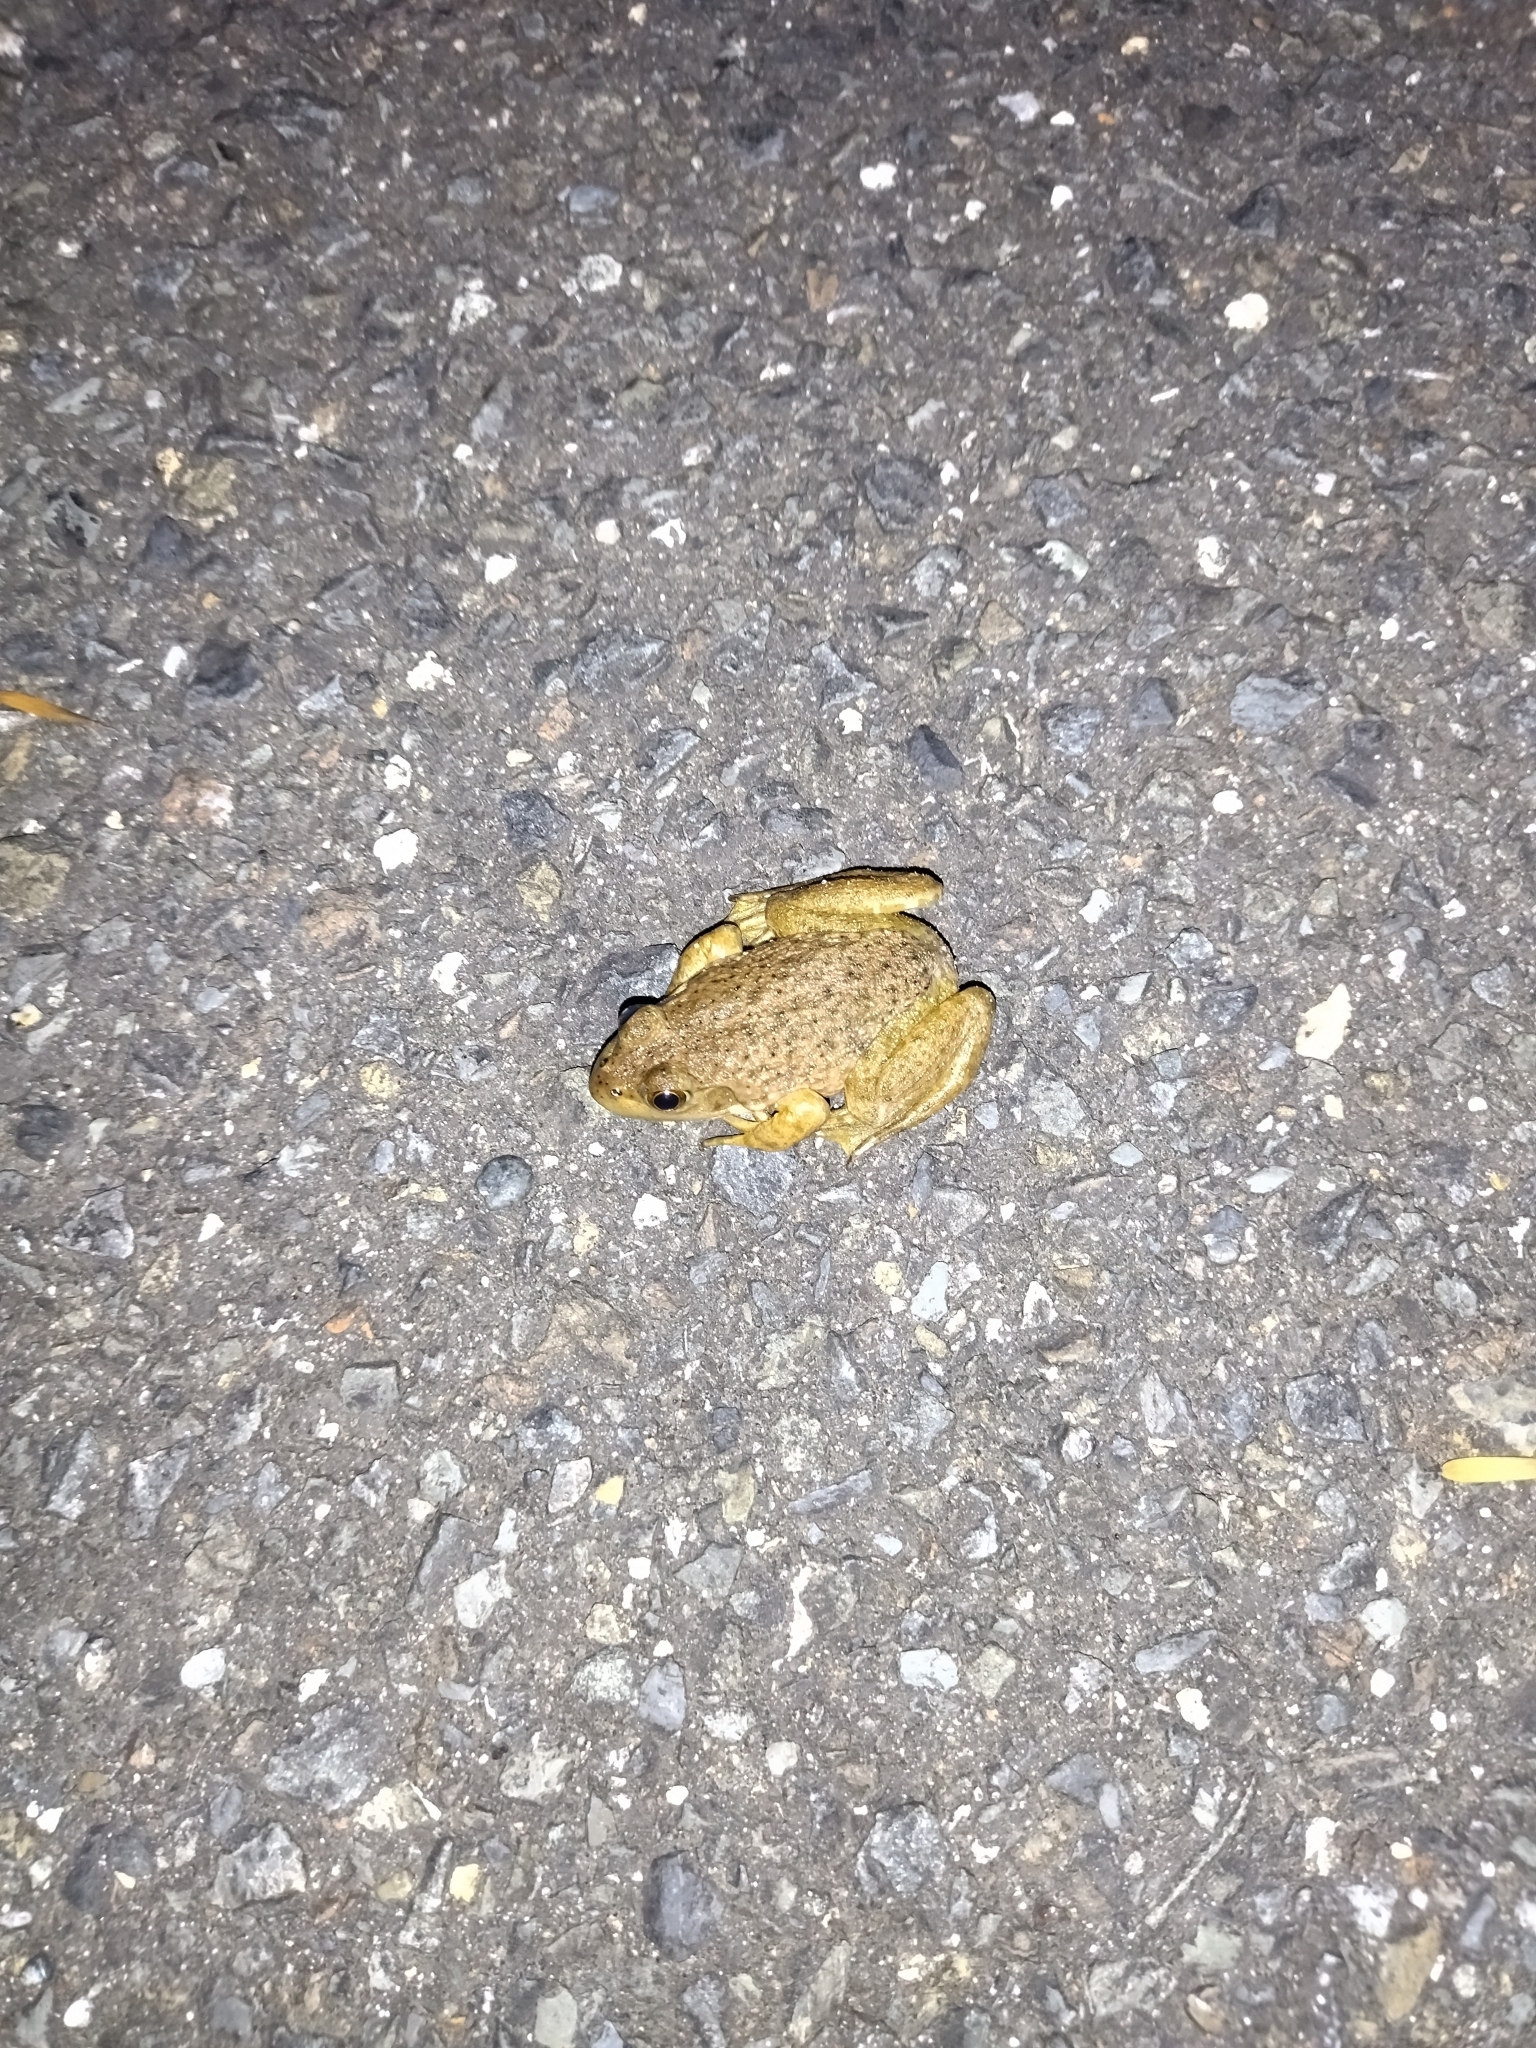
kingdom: Animalia
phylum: Chordata
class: Amphibia
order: Anura
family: Ranidae
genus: Lithobates
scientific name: Lithobates catesbeianus
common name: American bullfrog
